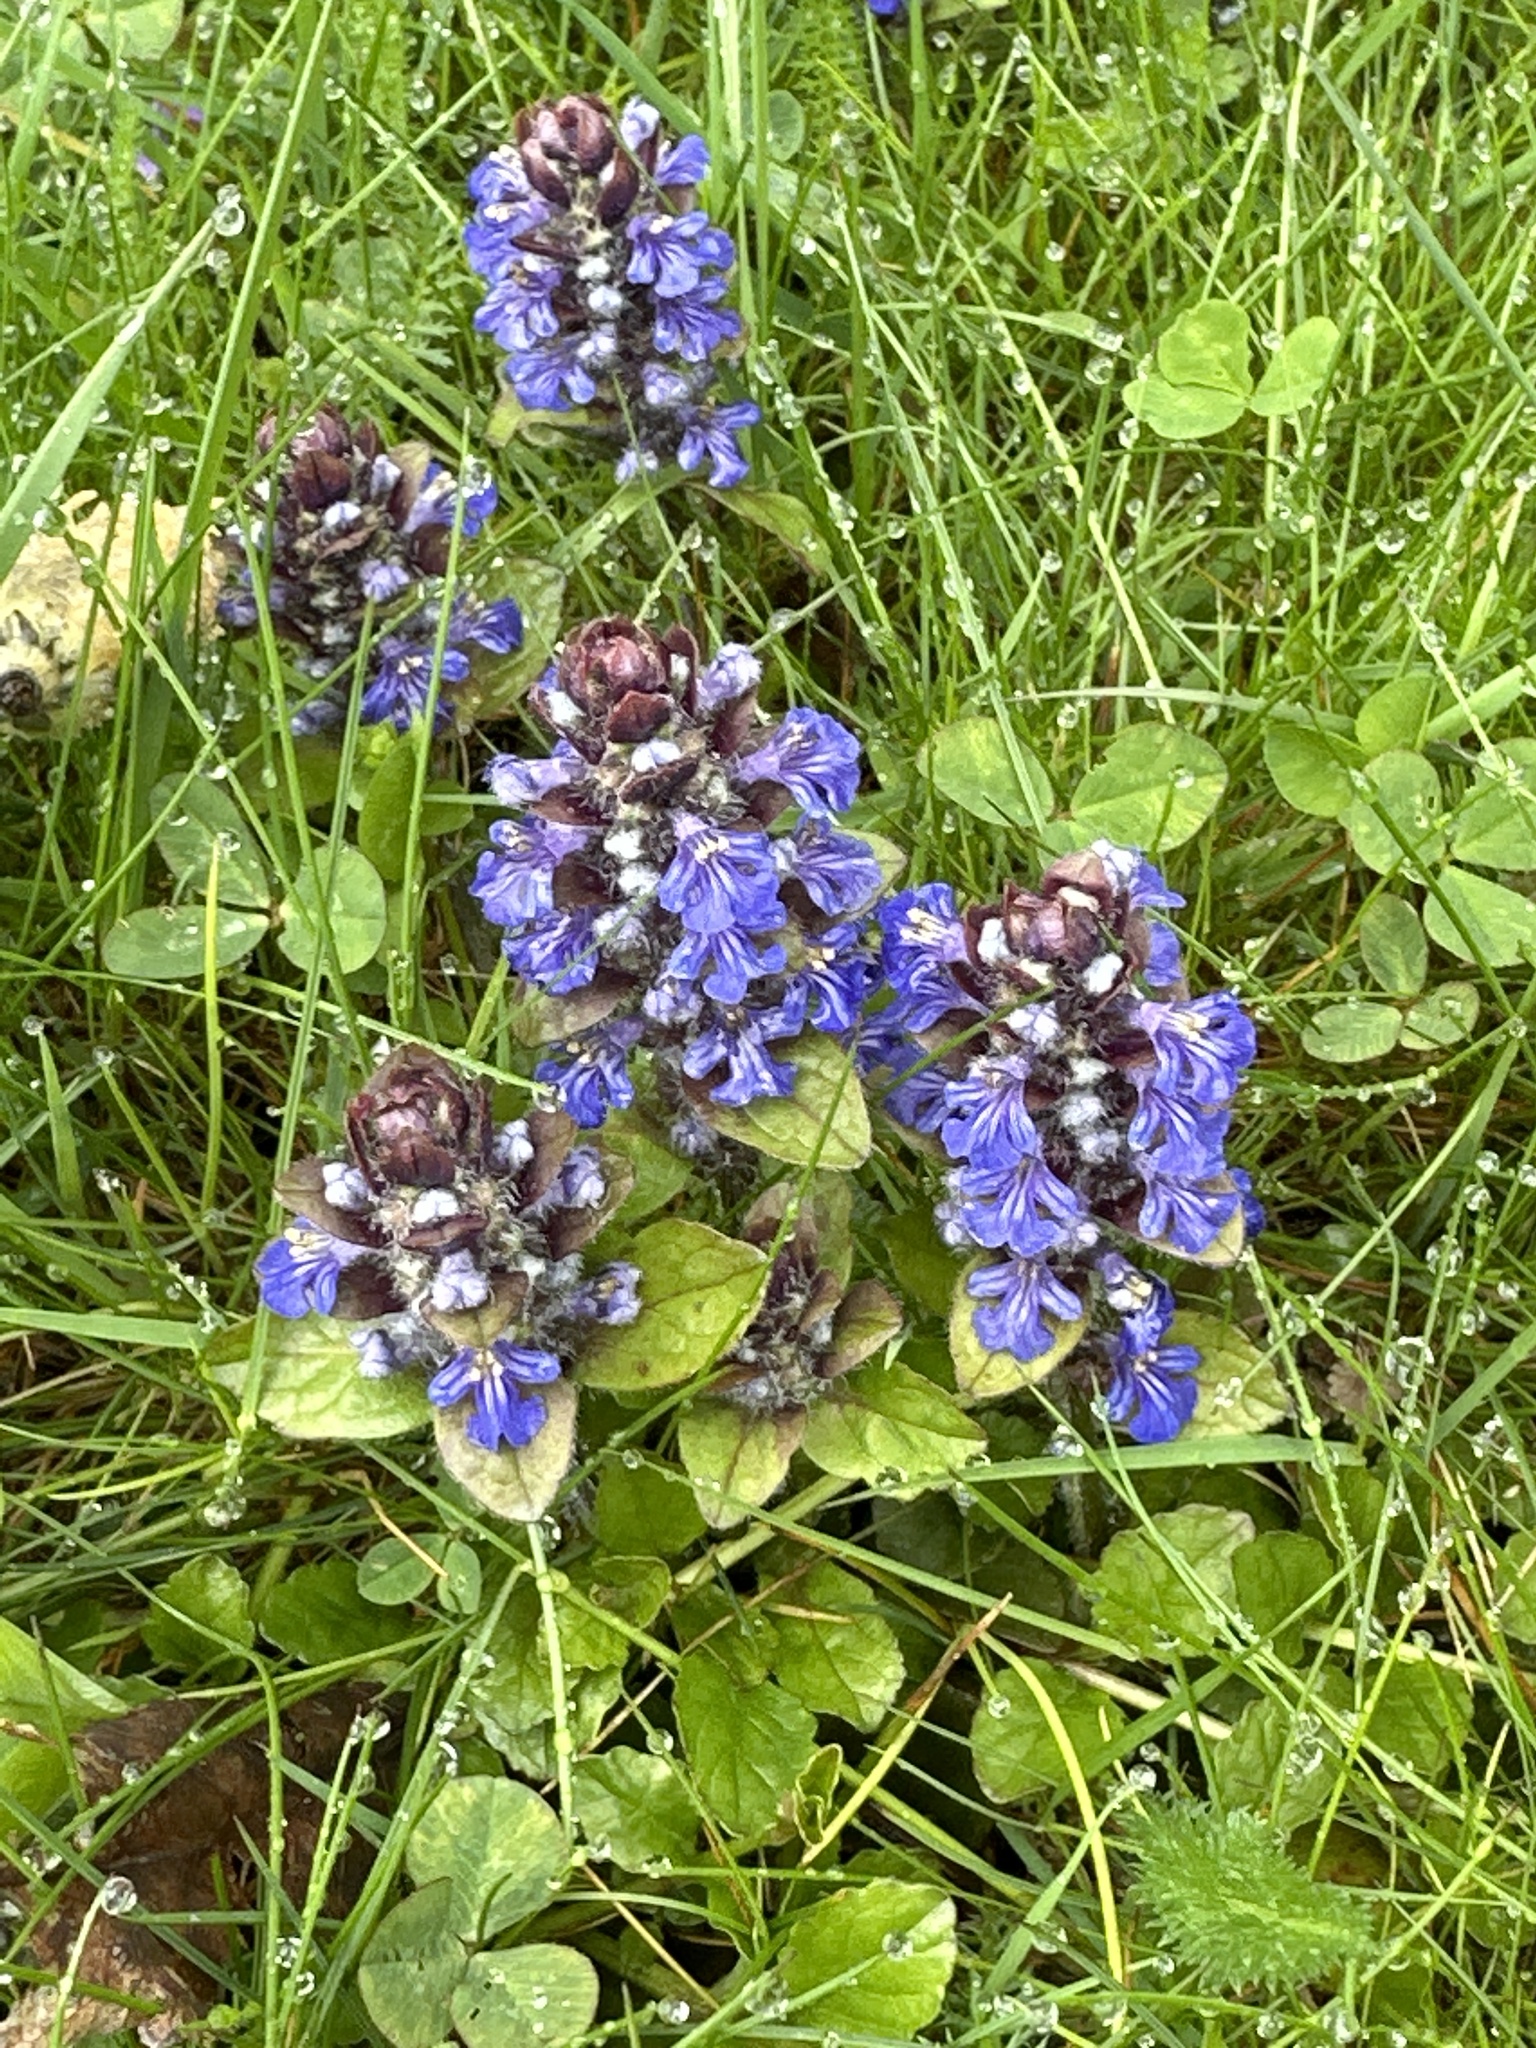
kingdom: Plantae
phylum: Tracheophyta
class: Magnoliopsida
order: Lamiales
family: Lamiaceae
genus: Ajuga
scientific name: Ajuga reptans
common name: Bugle
